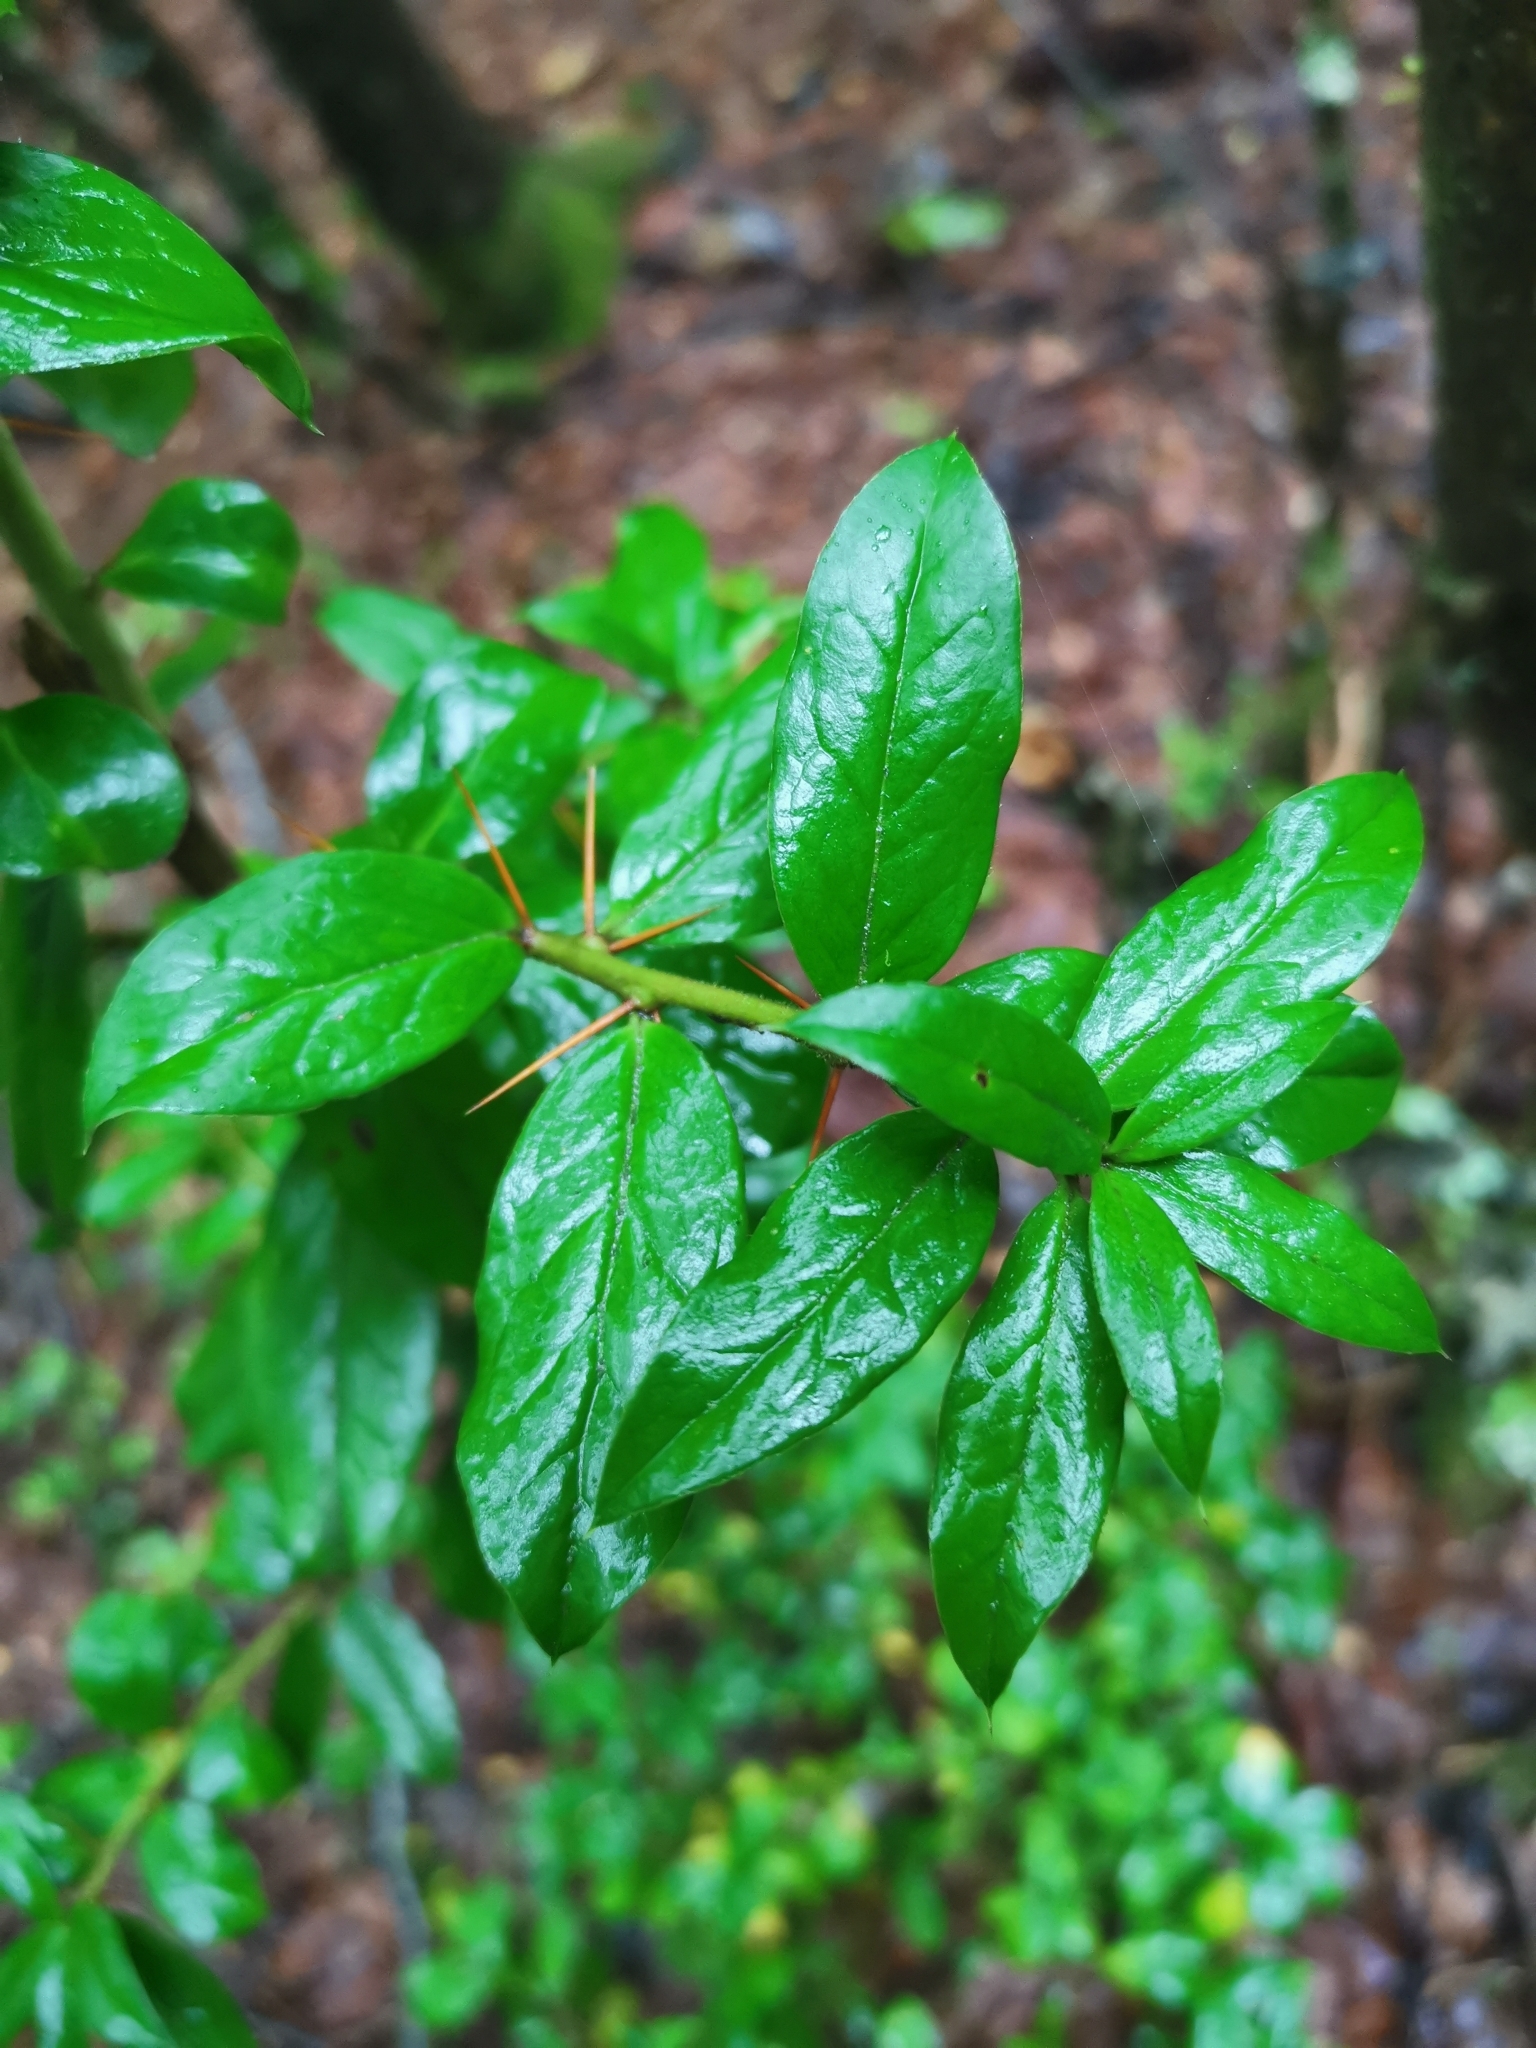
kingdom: Plantae
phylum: Tracheophyta
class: Magnoliopsida
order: Asterales
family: Asteraceae
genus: Archidasyphyllum
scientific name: Archidasyphyllum diacanthoides
